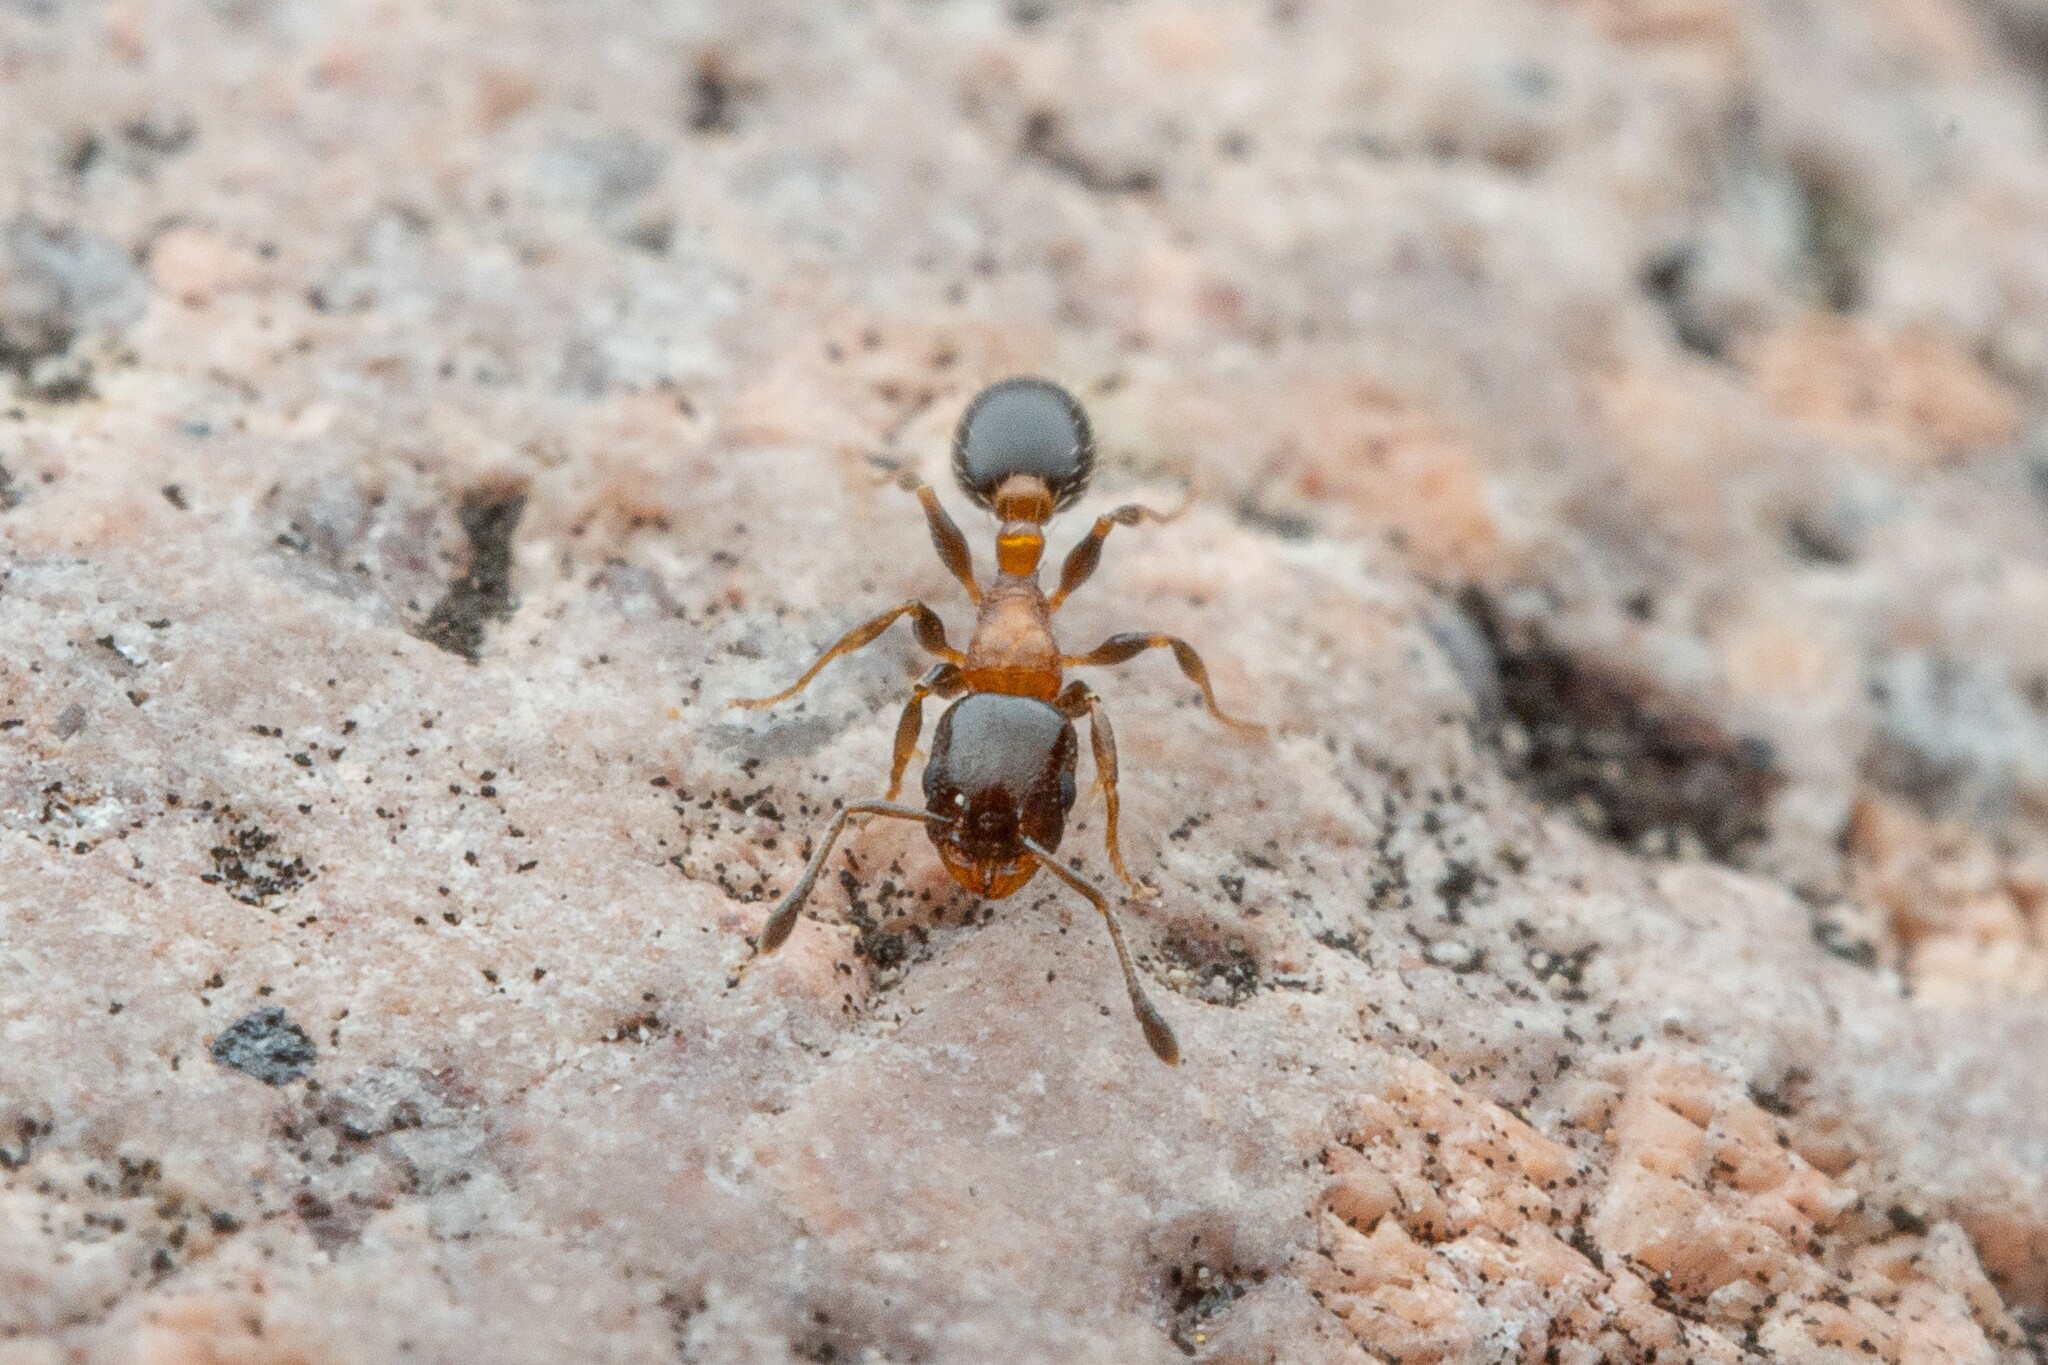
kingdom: Animalia
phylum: Arthropoda
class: Insecta
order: Hymenoptera
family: Formicidae
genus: Temnothorax
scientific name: Temnothorax
